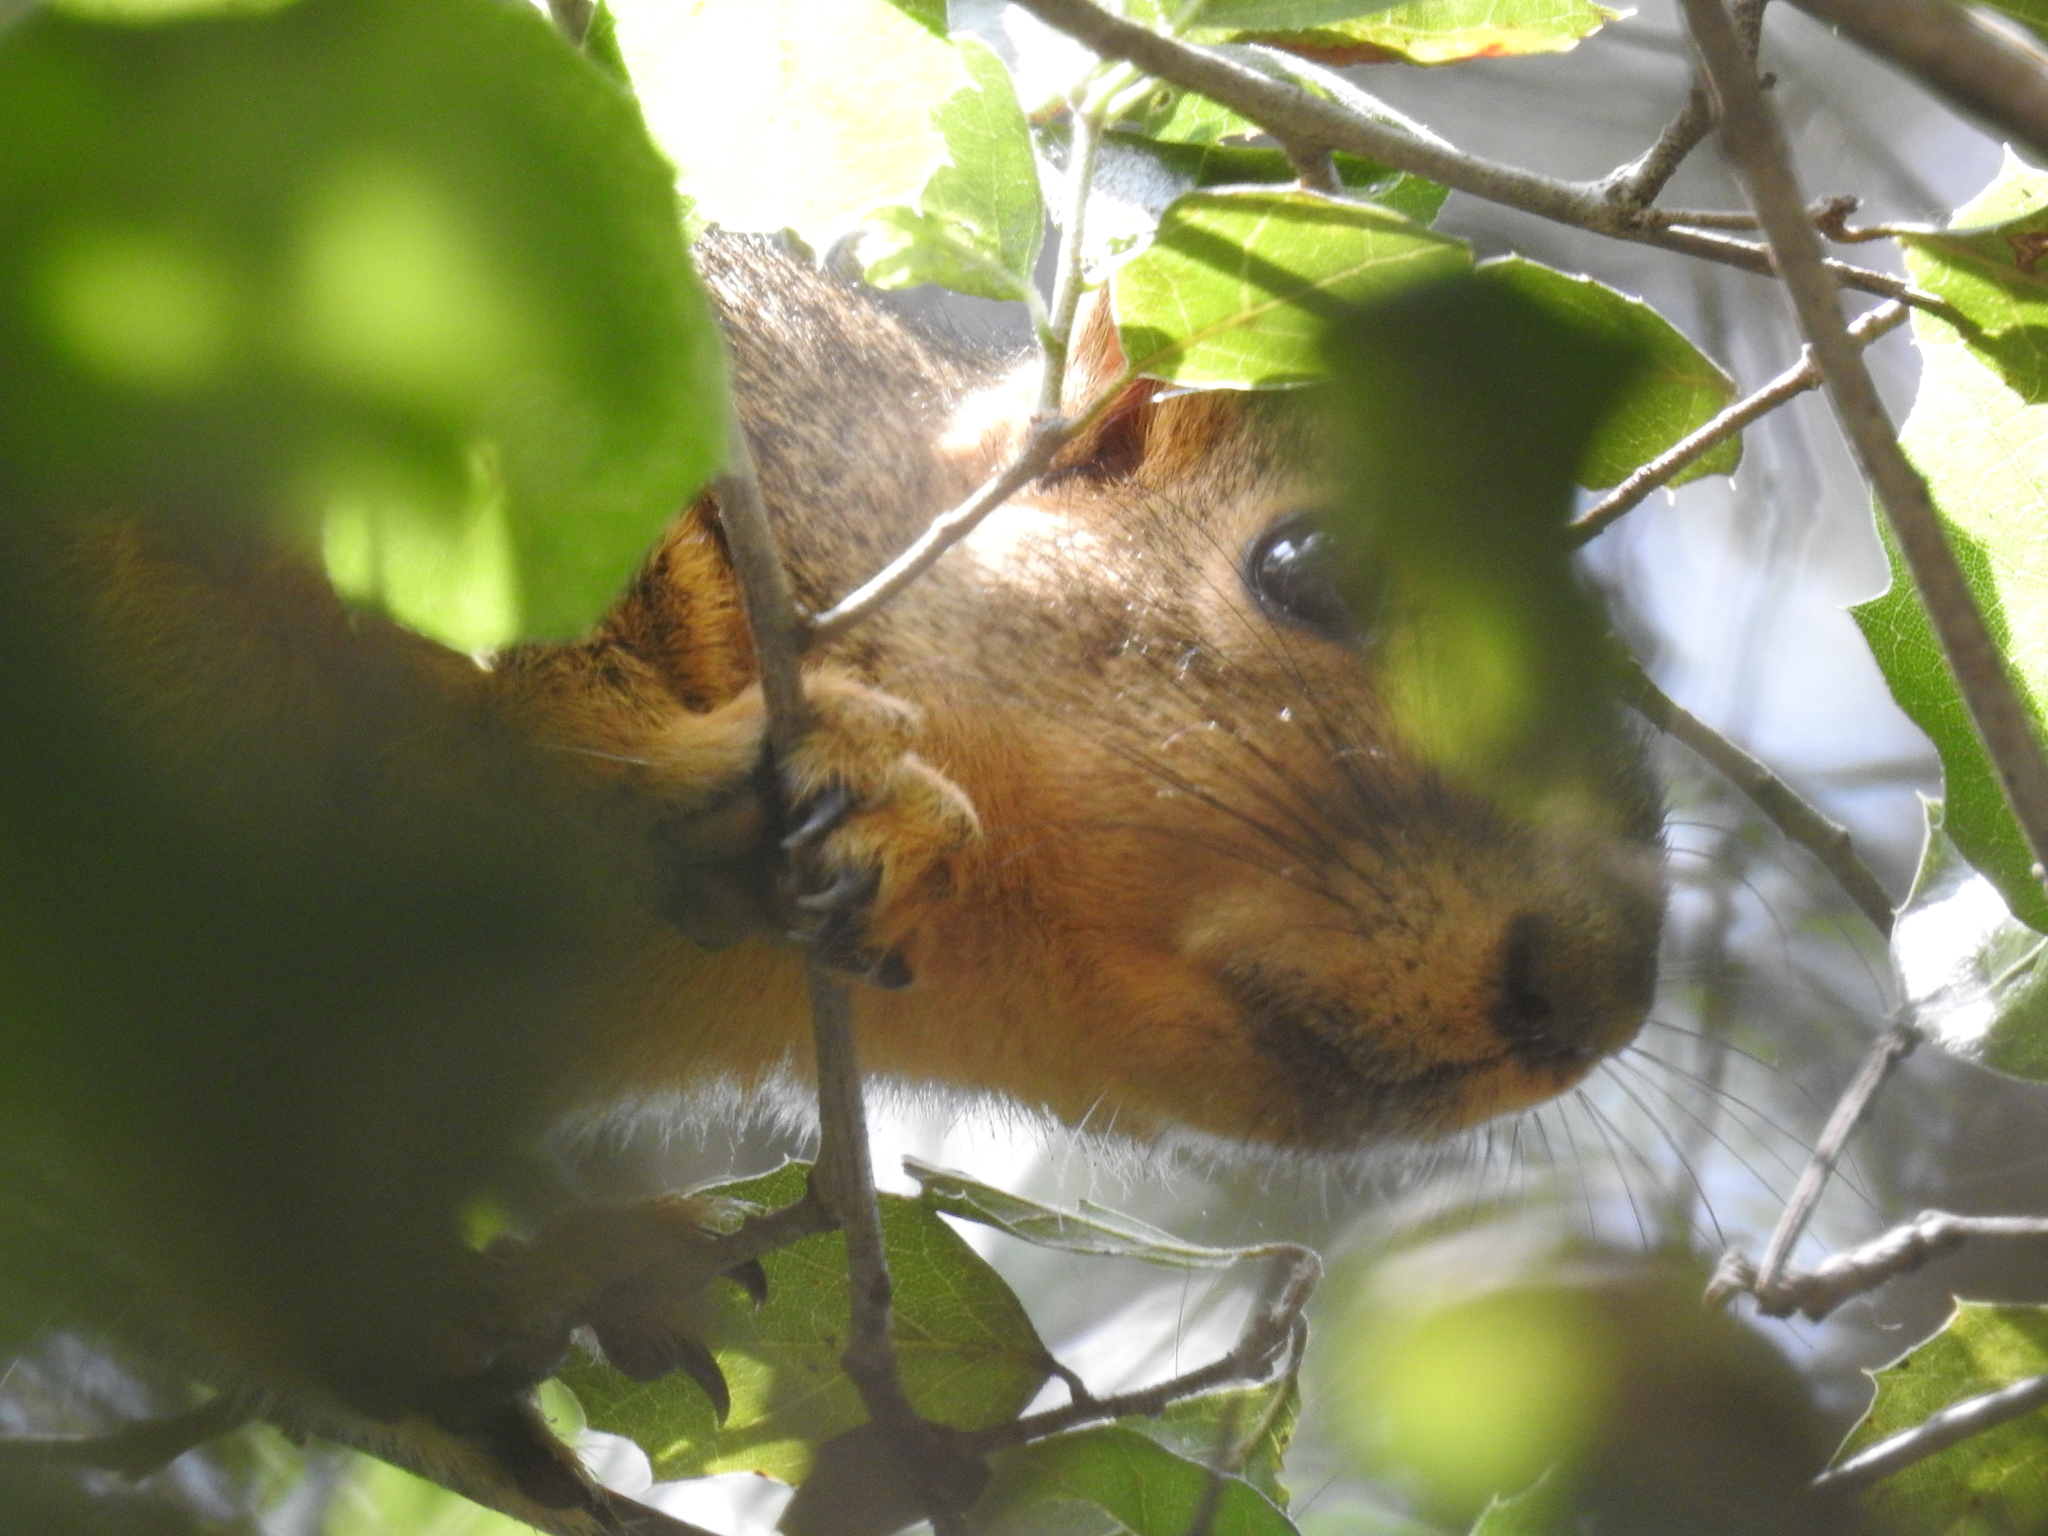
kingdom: Animalia
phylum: Chordata
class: Mammalia
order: Rodentia
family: Sciuridae
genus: Sciurus
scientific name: Sciurus niger
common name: Fox squirrel
